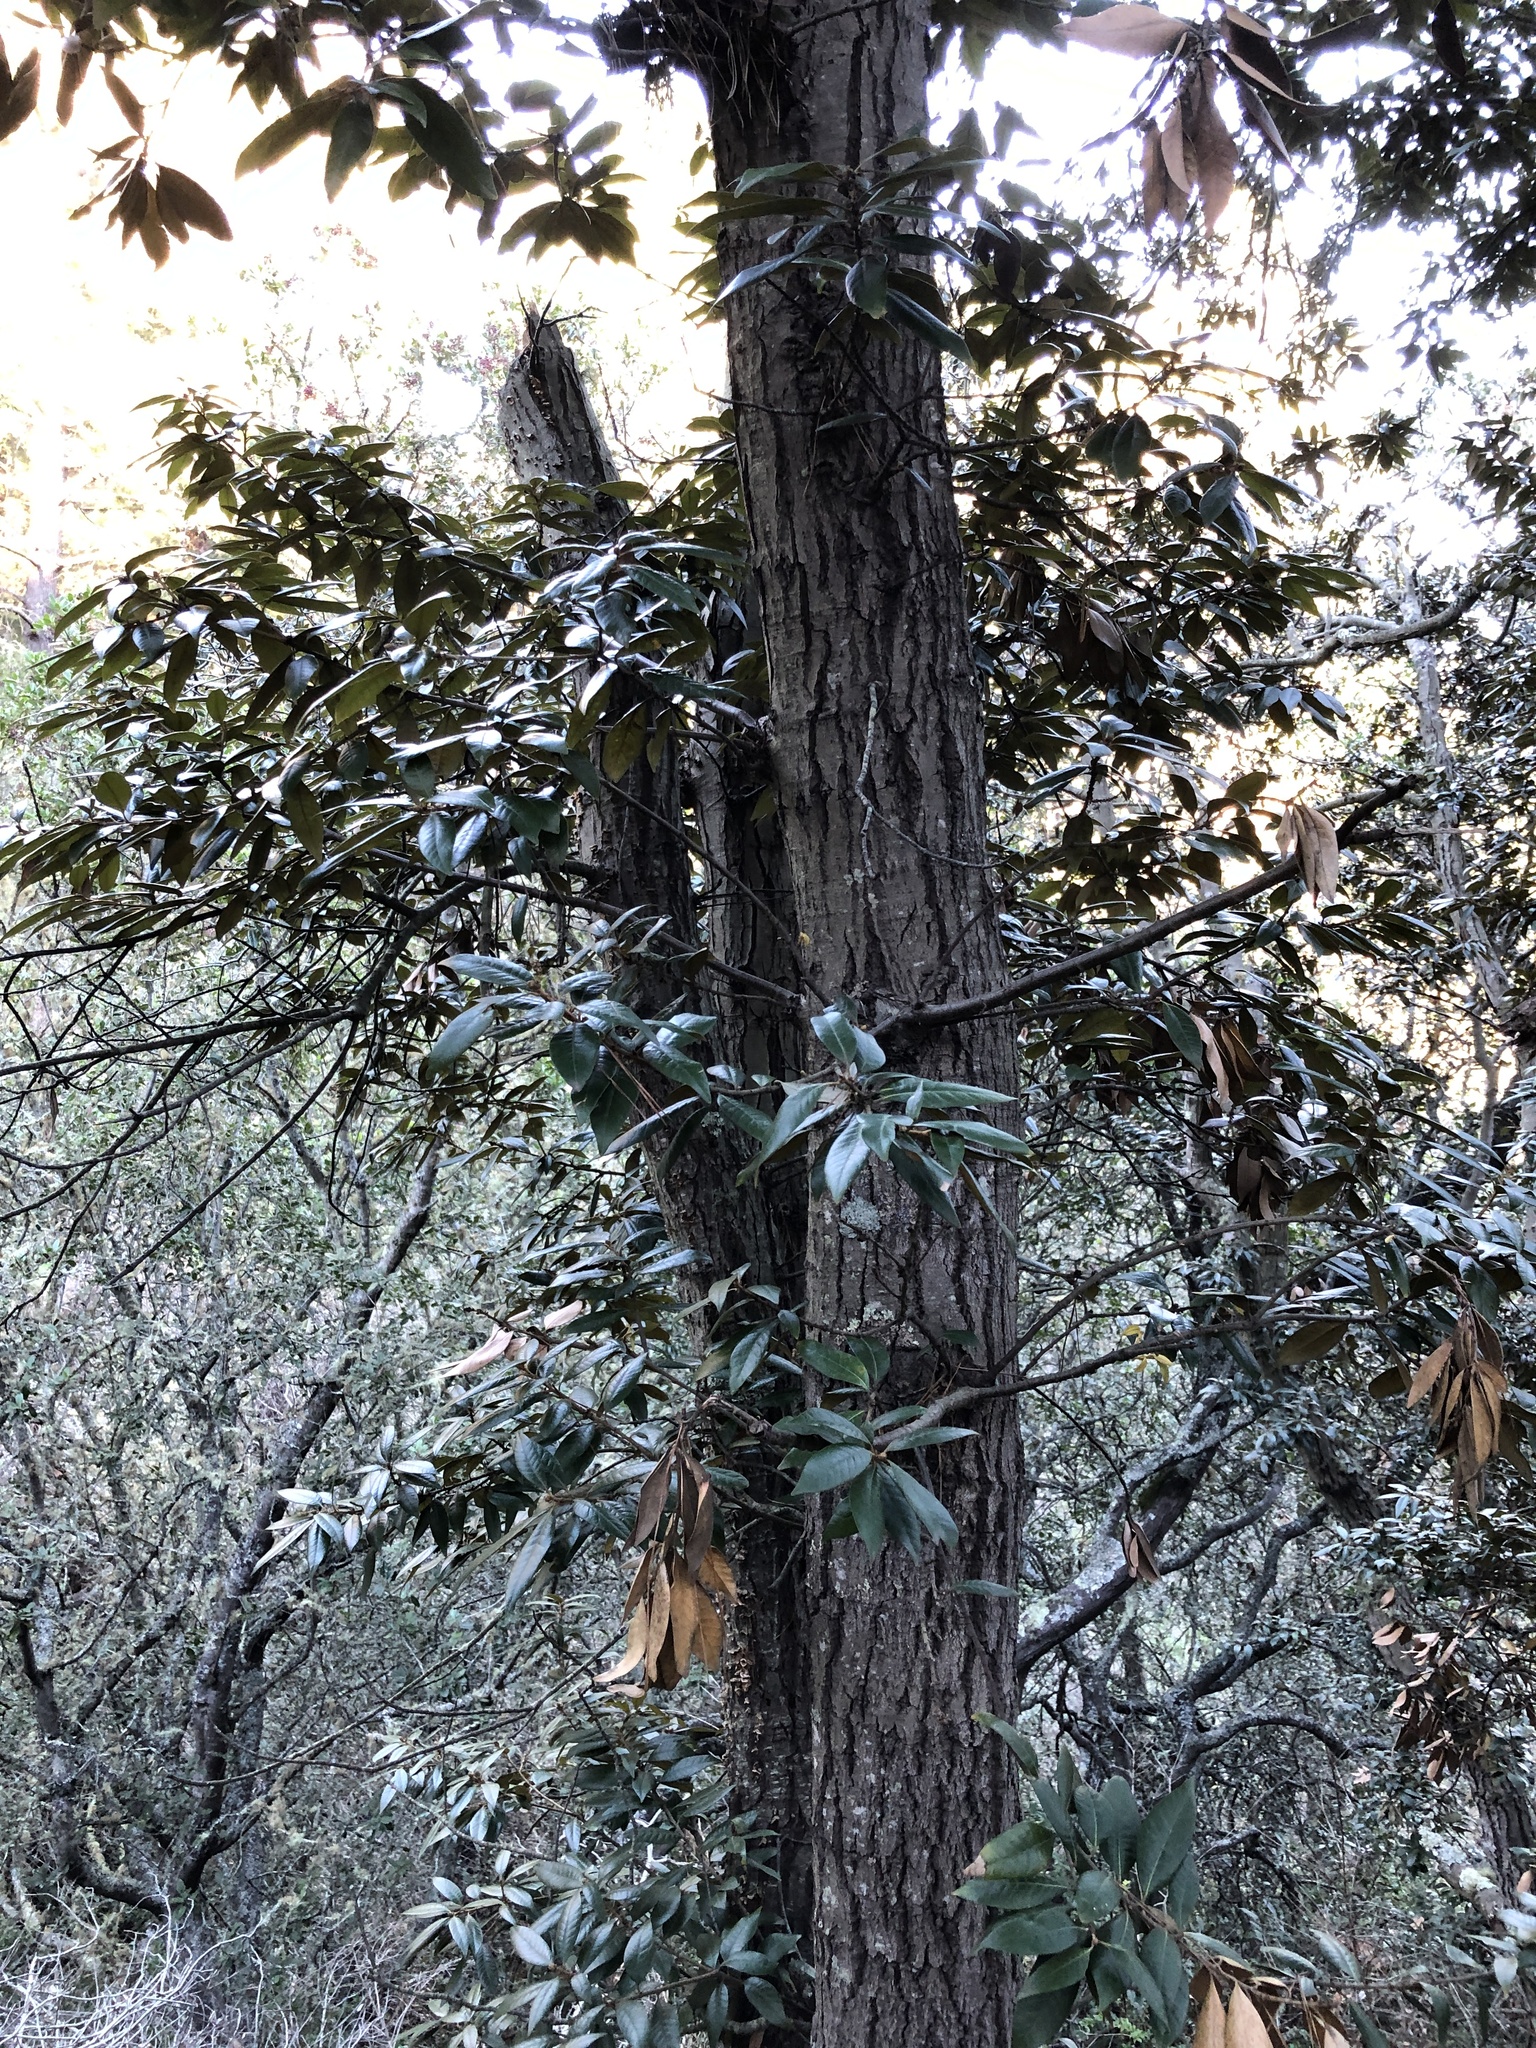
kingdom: Plantae
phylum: Tracheophyta
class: Magnoliopsida
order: Fagales
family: Fagaceae
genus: Chrysolepis
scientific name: Chrysolepis chrysophylla
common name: Giant chinquapin
